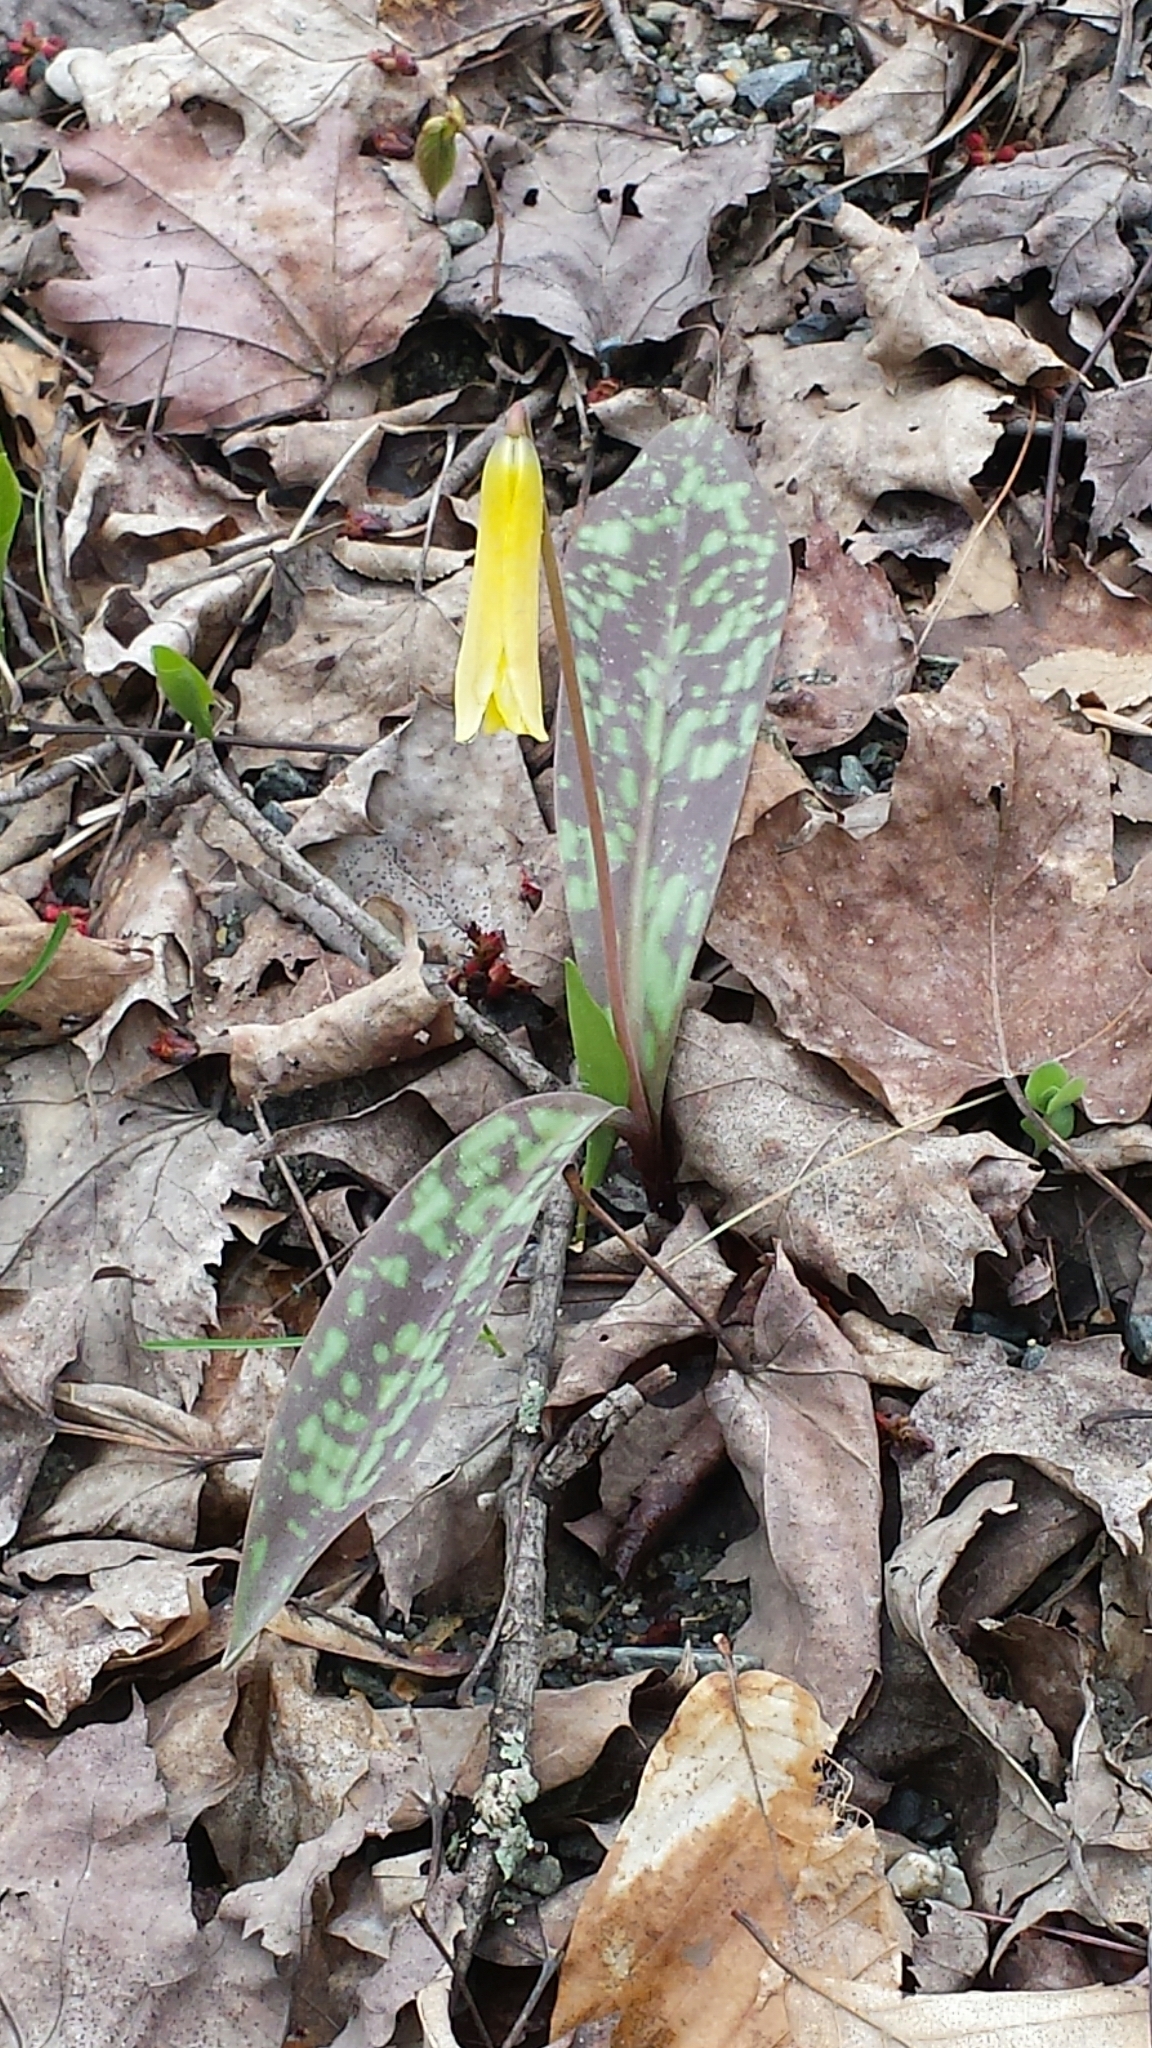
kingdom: Plantae
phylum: Tracheophyta
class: Liliopsida
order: Liliales
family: Liliaceae
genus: Erythronium
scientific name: Erythronium americanum
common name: Yellow adder's-tongue
